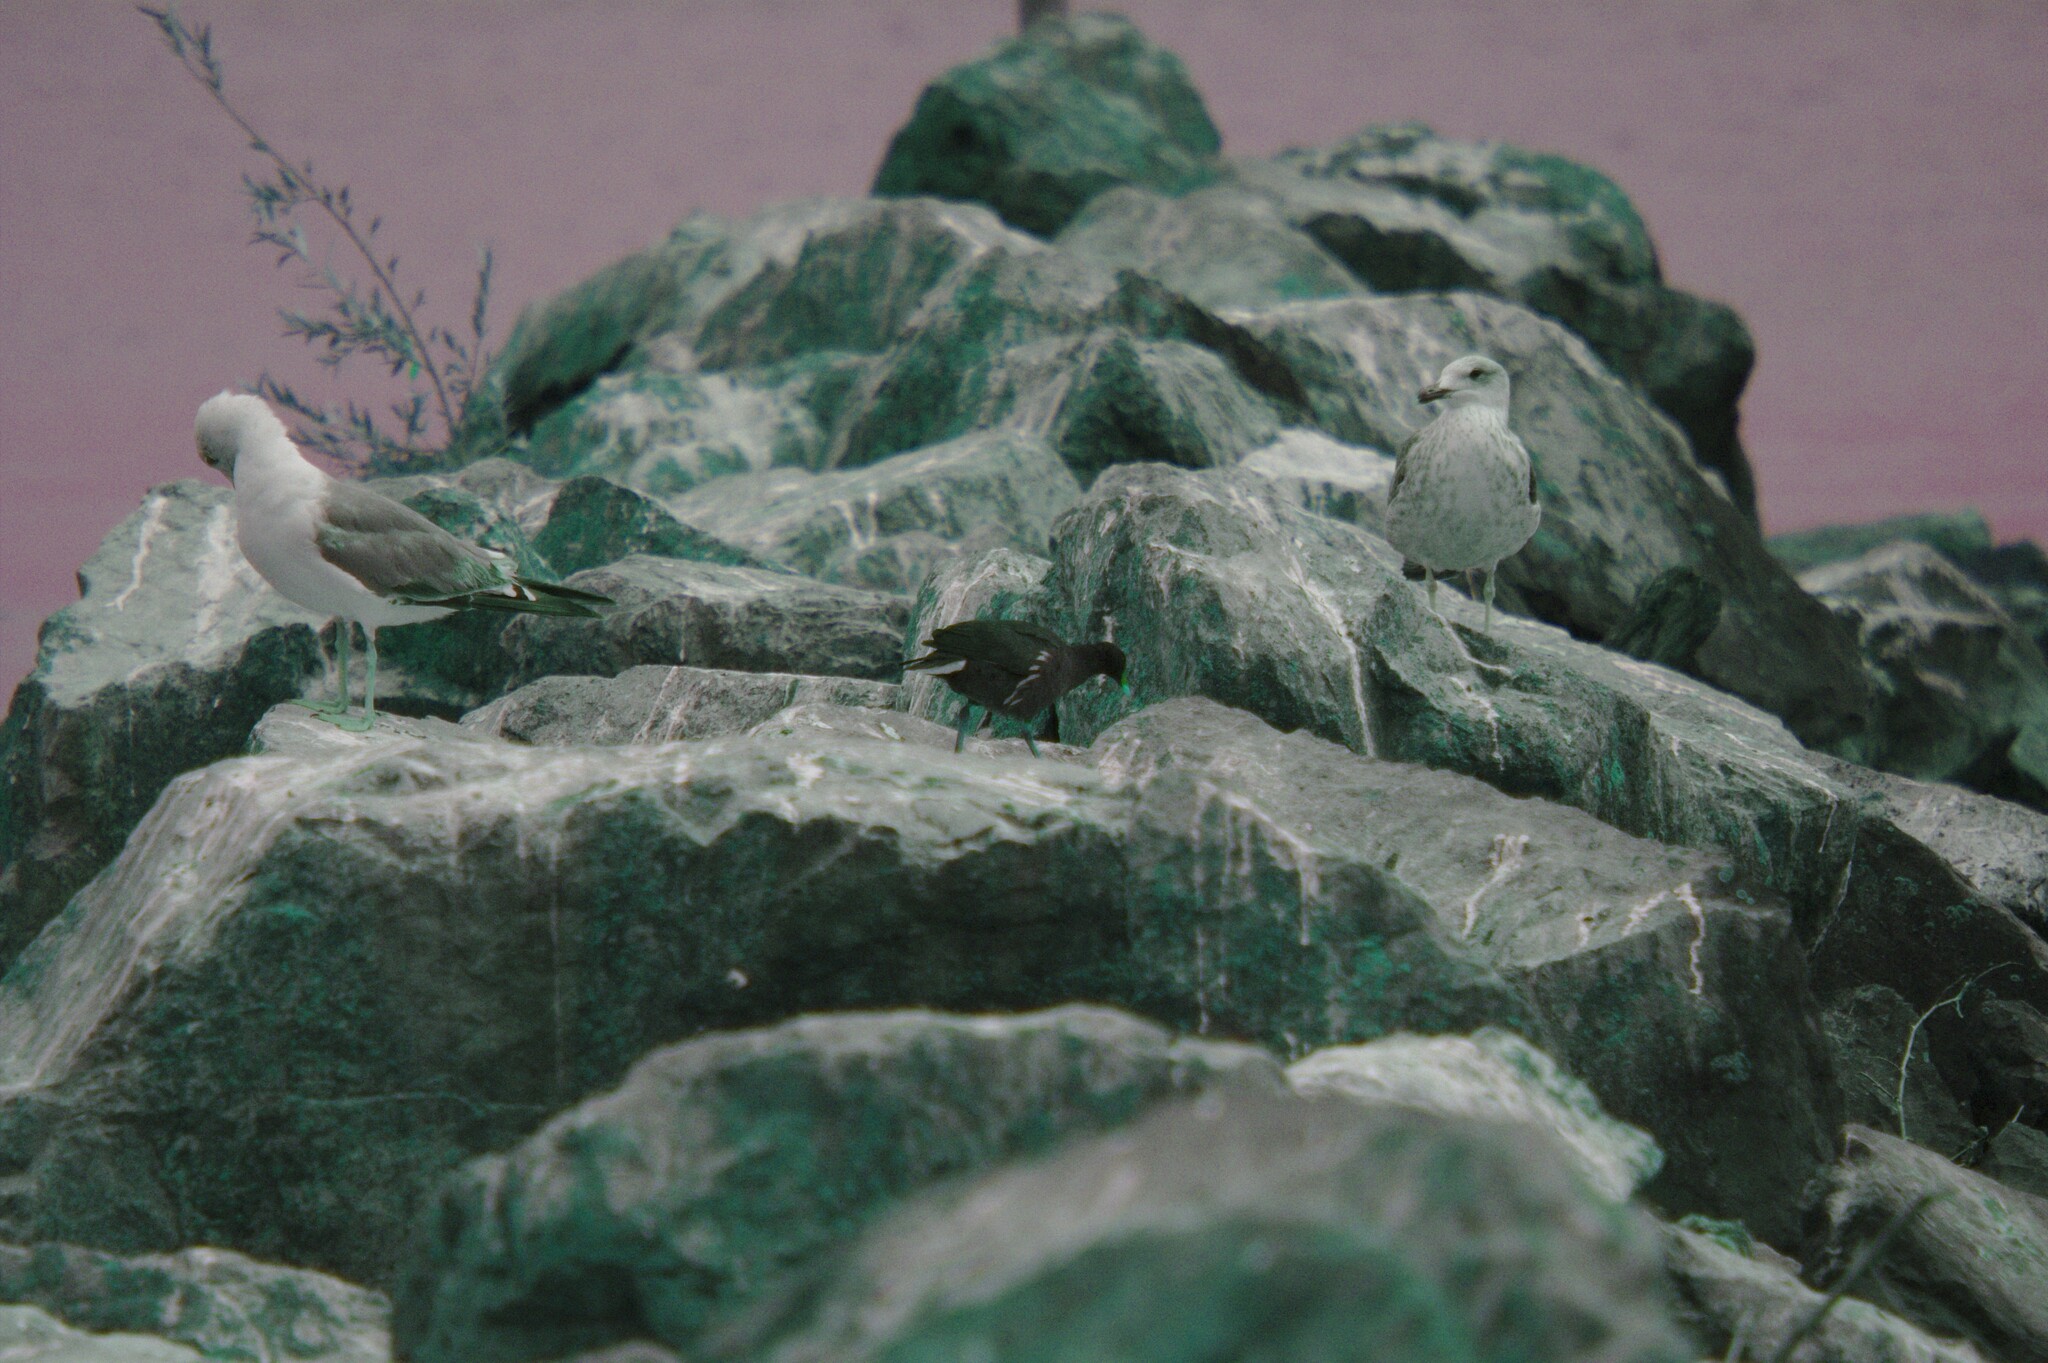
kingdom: Animalia
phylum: Chordata
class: Aves
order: Gruiformes
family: Rallidae
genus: Gallinula
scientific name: Gallinula chloropus
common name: Common moorhen
